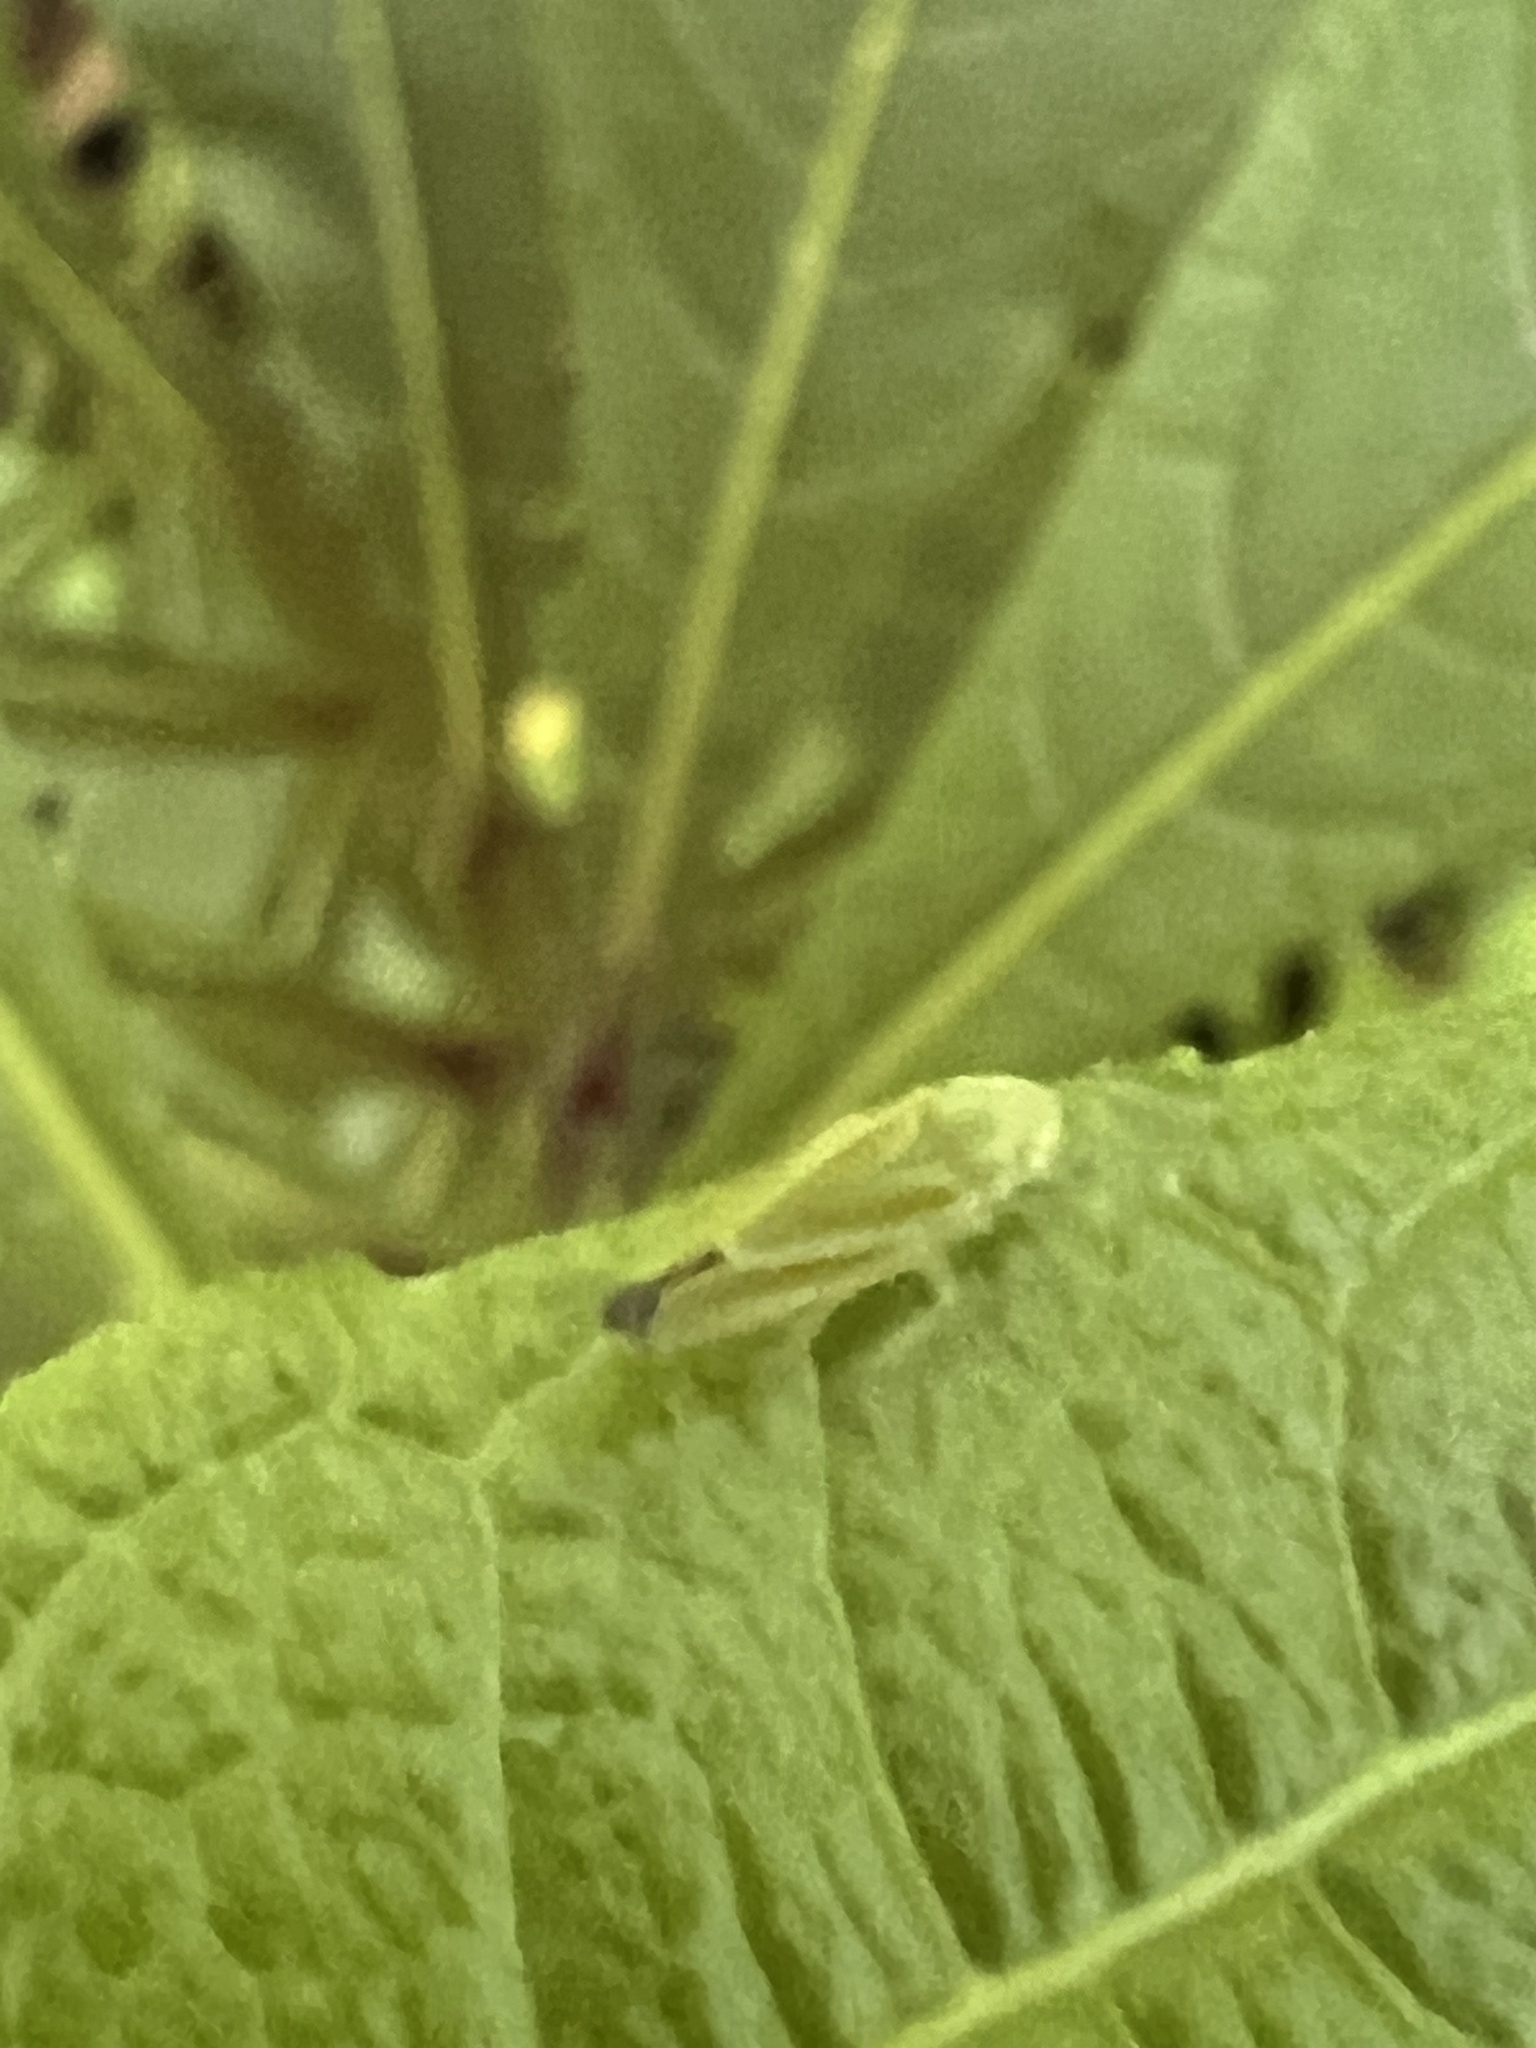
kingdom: Animalia
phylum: Arthropoda
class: Insecta
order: Hemiptera
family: Cicadellidae
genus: Graphocephala
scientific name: Graphocephala versuta
